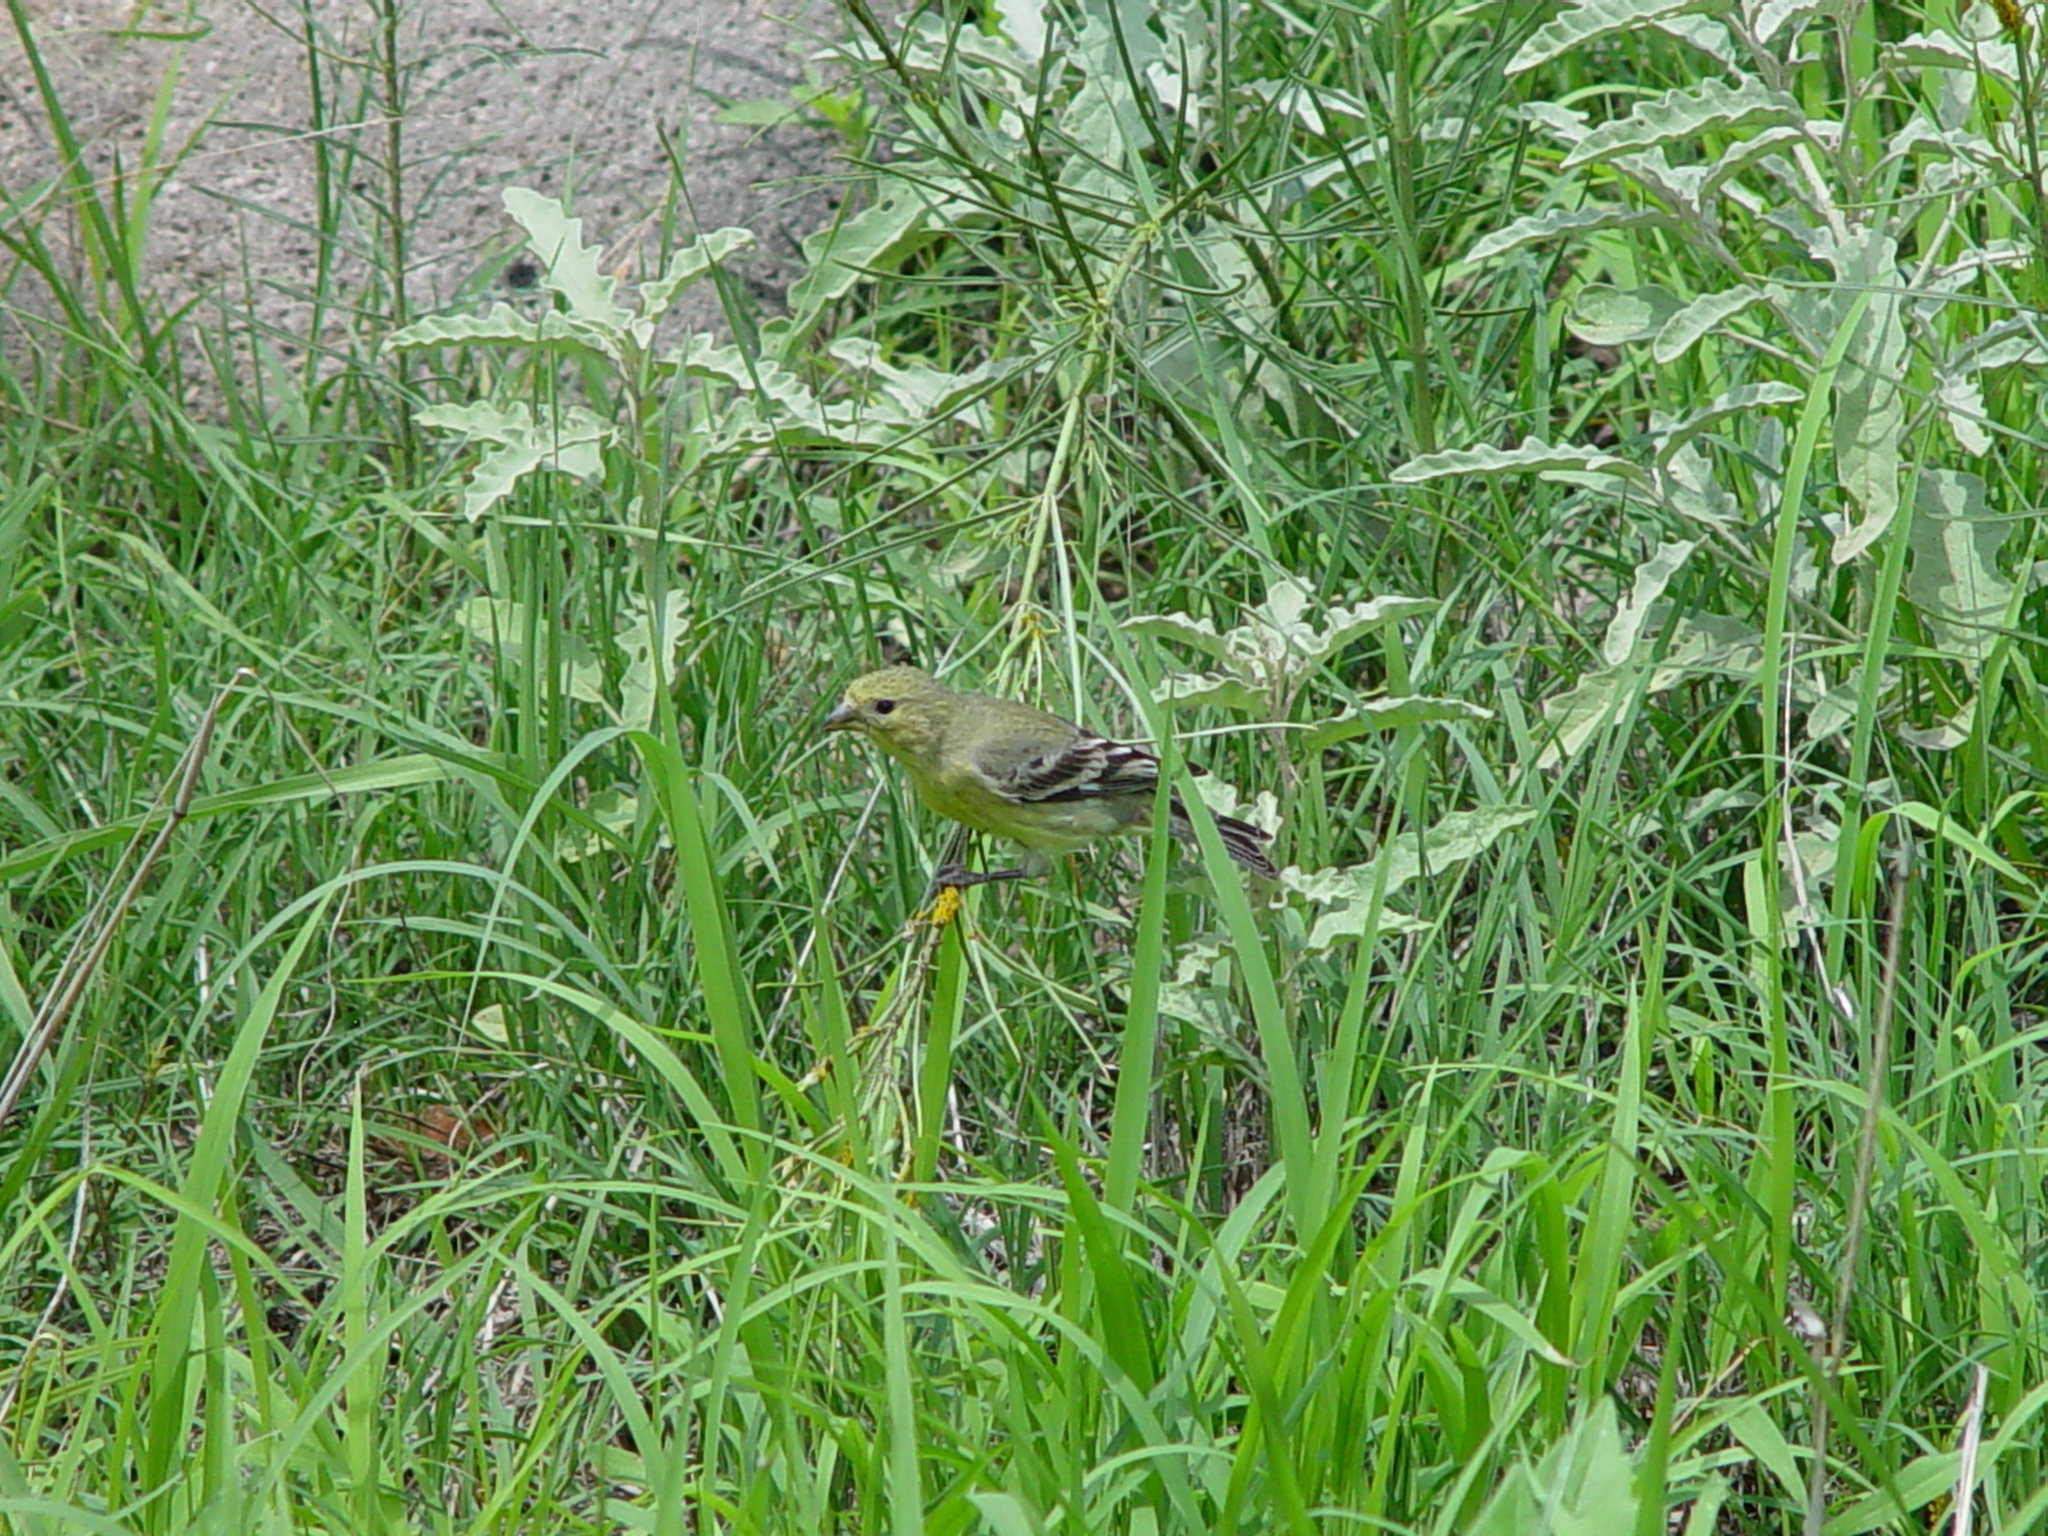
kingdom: Animalia
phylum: Chordata
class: Aves
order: Passeriformes
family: Fringillidae
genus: Spinus
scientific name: Spinus psaltria
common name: Lesser goldfinch
